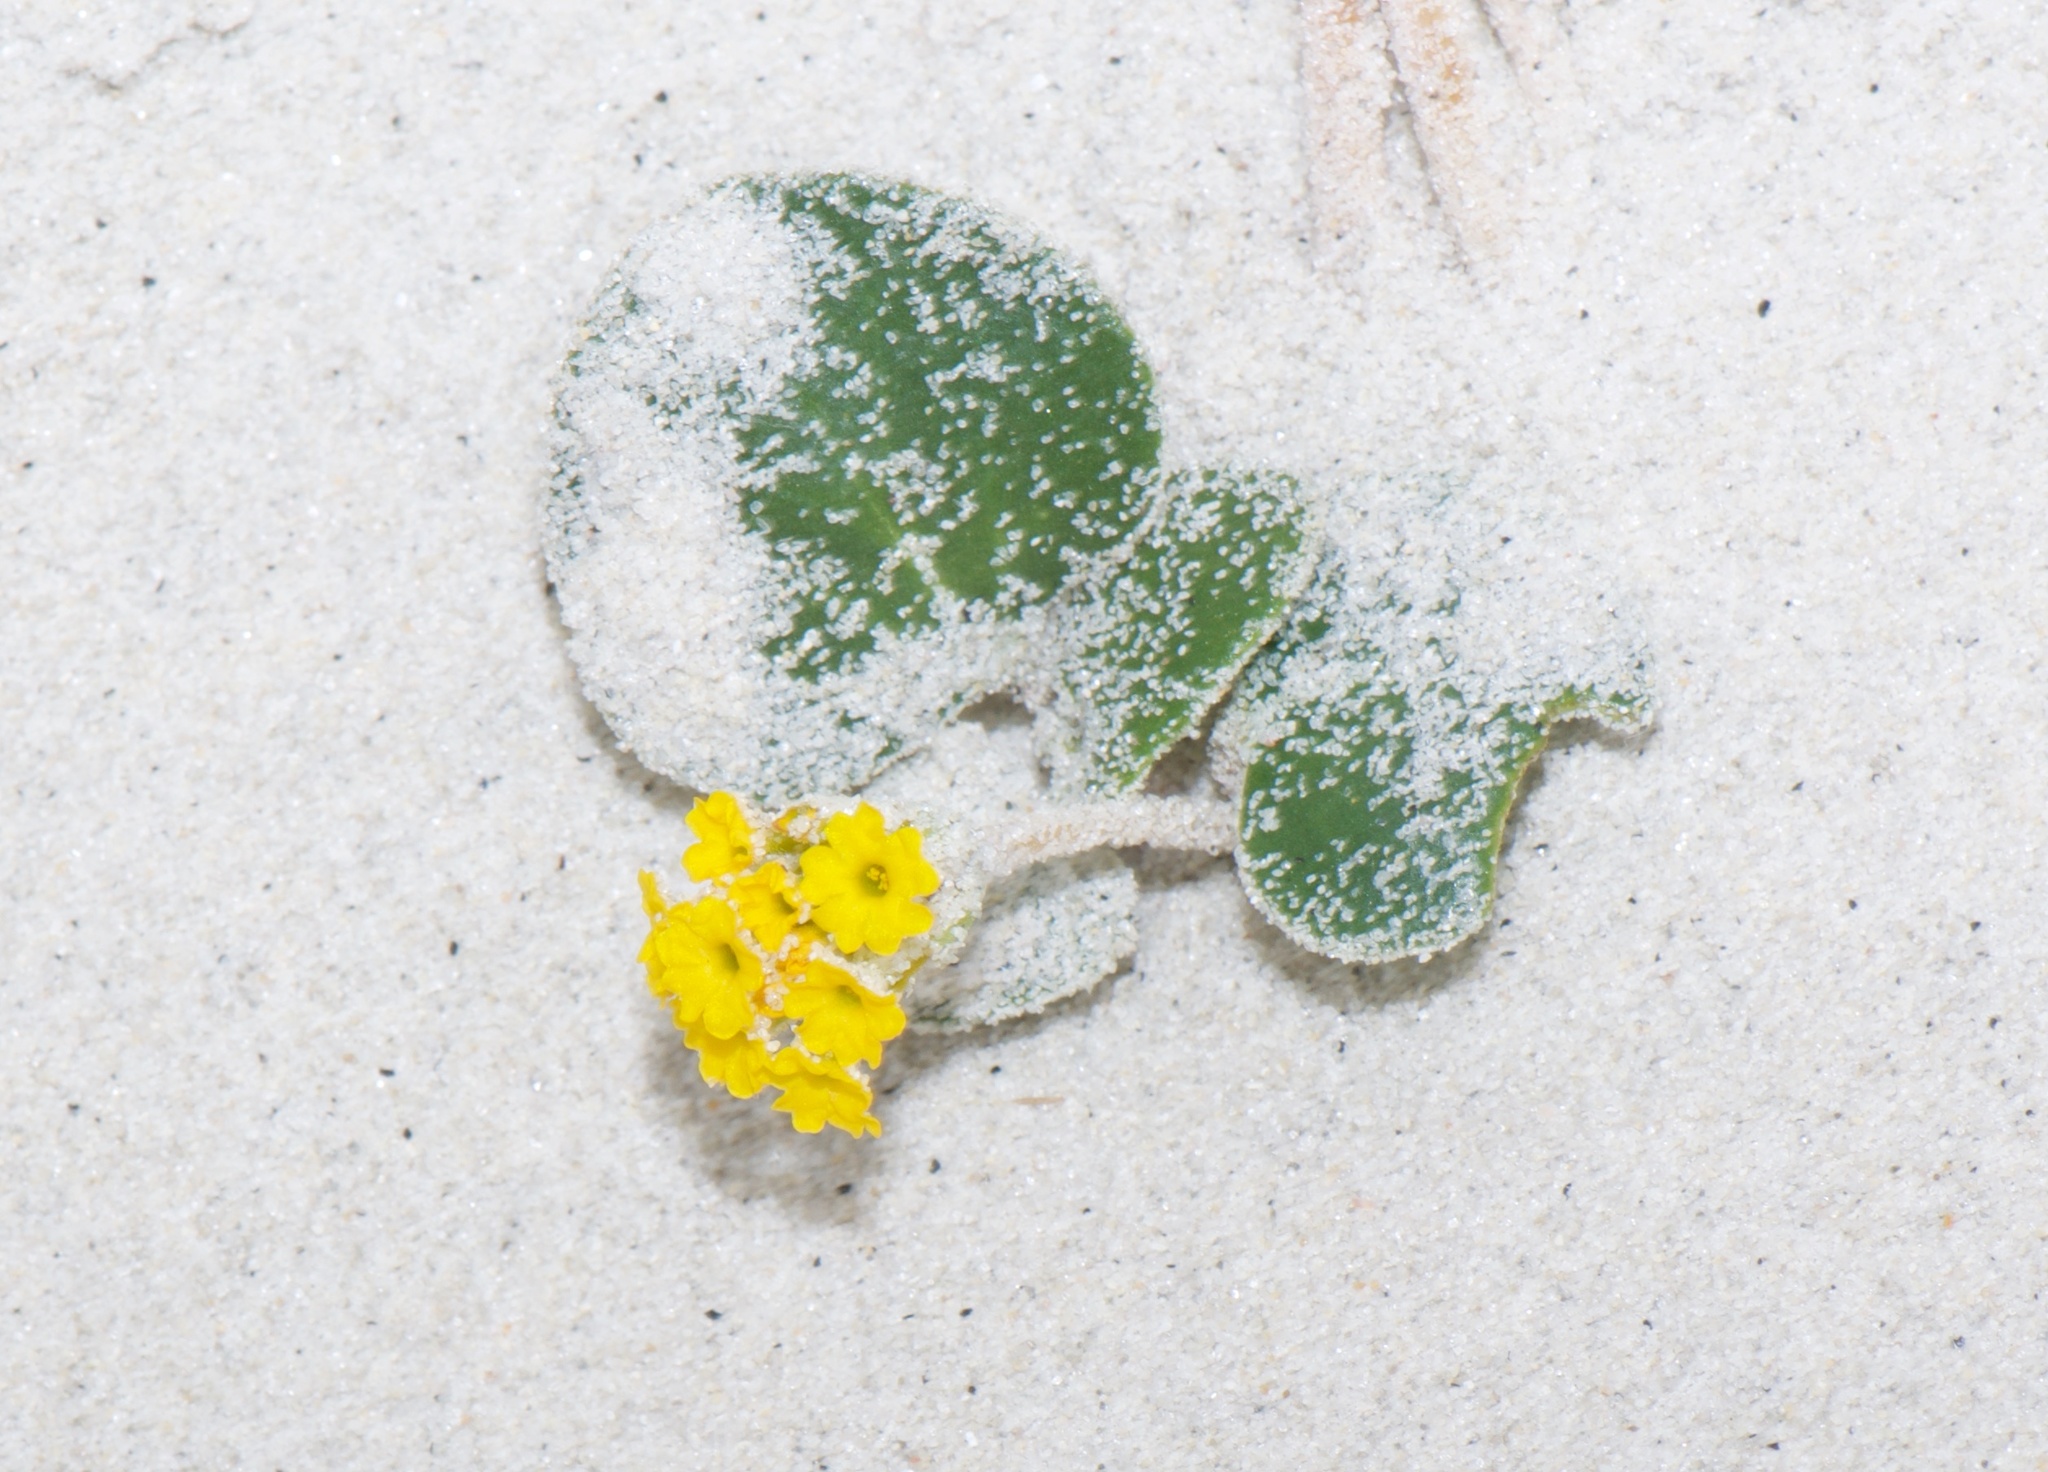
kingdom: Plantae
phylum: Tracheophyta
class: Magnoliopsida
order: Caryophyllales
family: Nyctaginaceae
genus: Abronia
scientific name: Abronia latifolia
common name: Yellow sand-verbena
